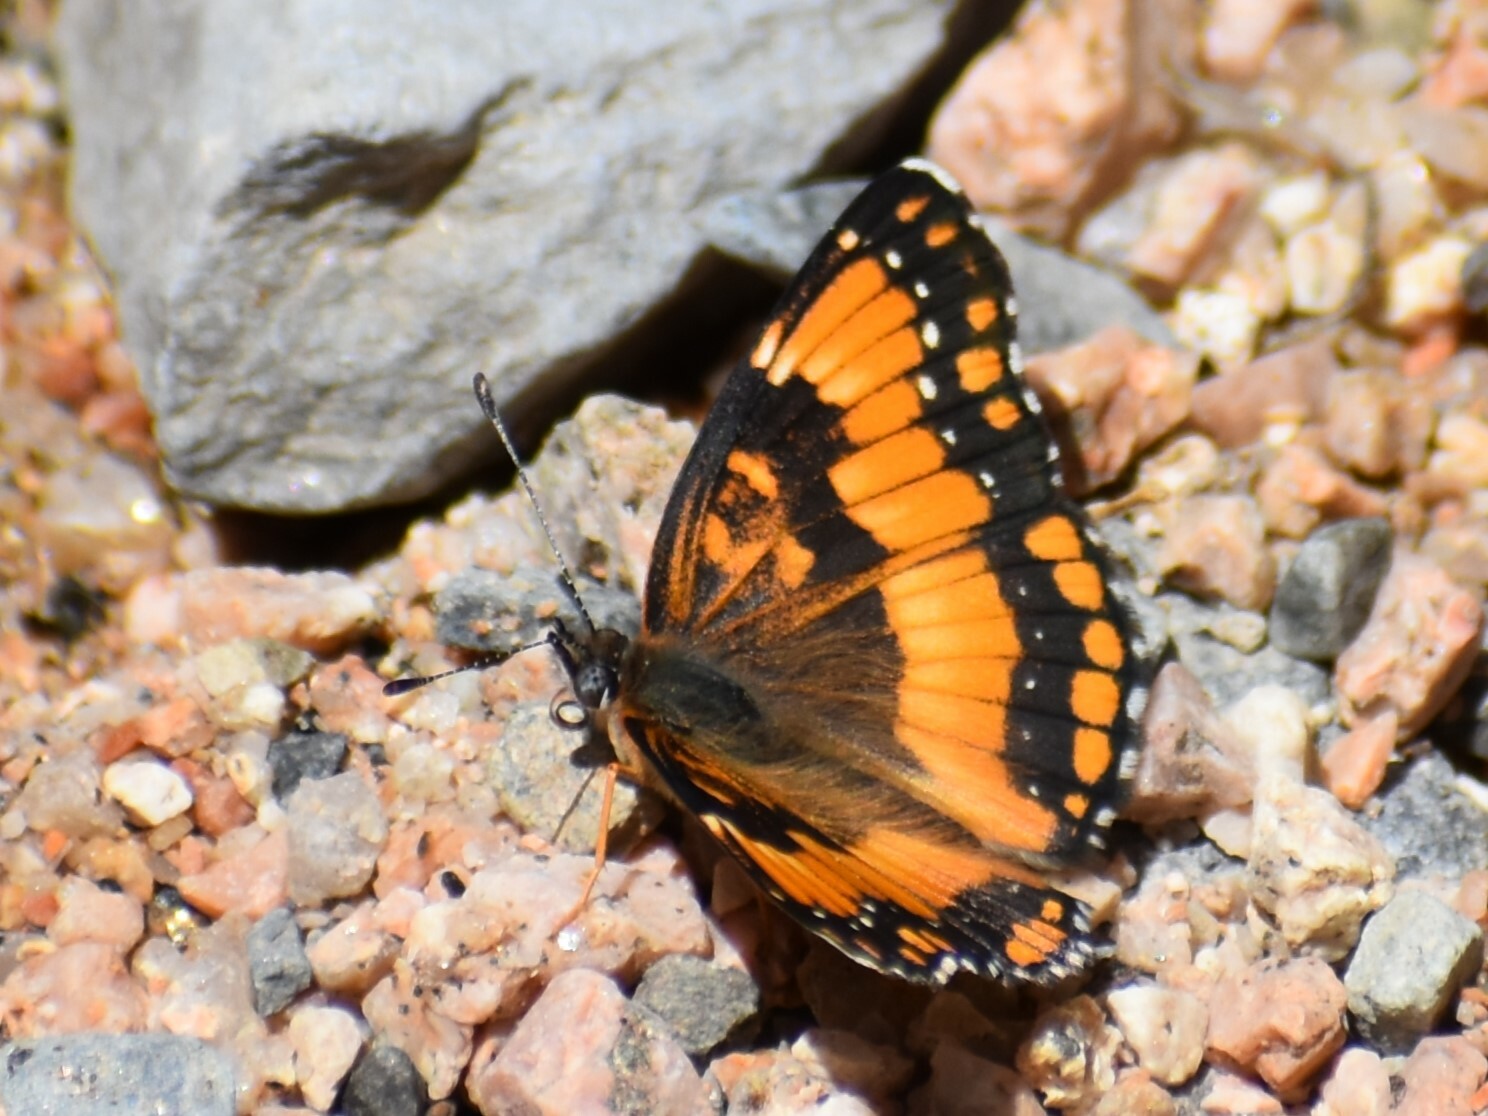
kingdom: Animalia
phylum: Arthropoda
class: Insecta
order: Lepidoptera
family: Nymphalidae
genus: Chlosyne
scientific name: Chlosyne californica
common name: California patch
